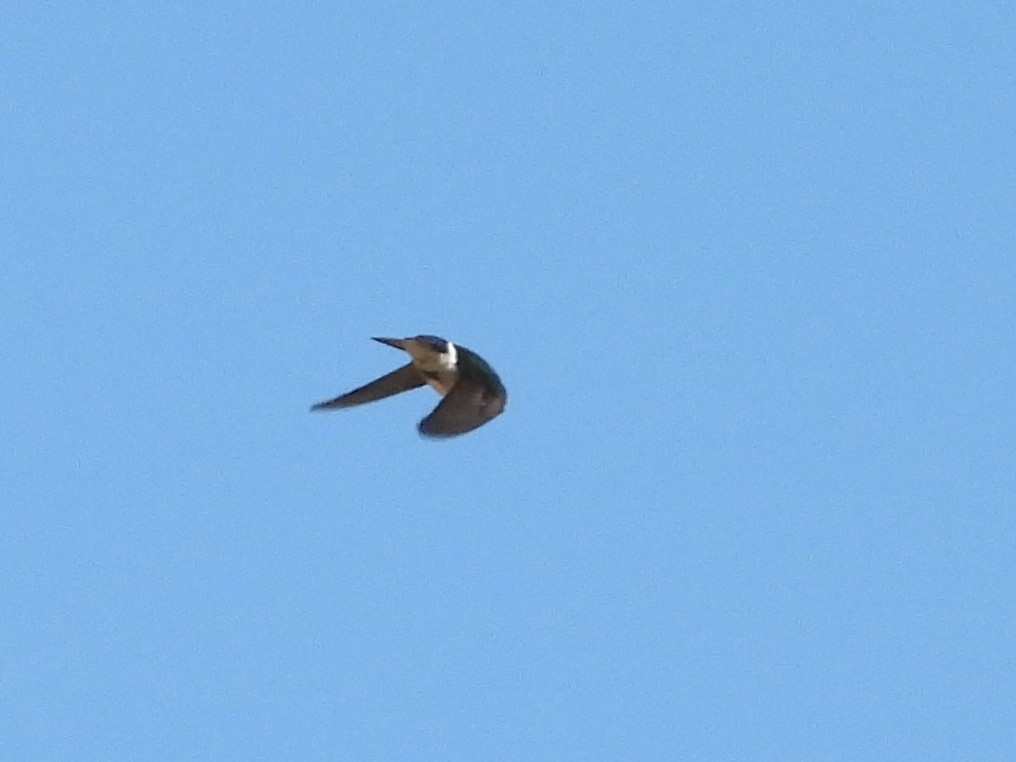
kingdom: Animalia
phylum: Chordata
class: Aves
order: Passeriformes
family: Hirundinidae
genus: Tachycineta
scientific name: Tachycineta thalassina
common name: Violet-green swallow
